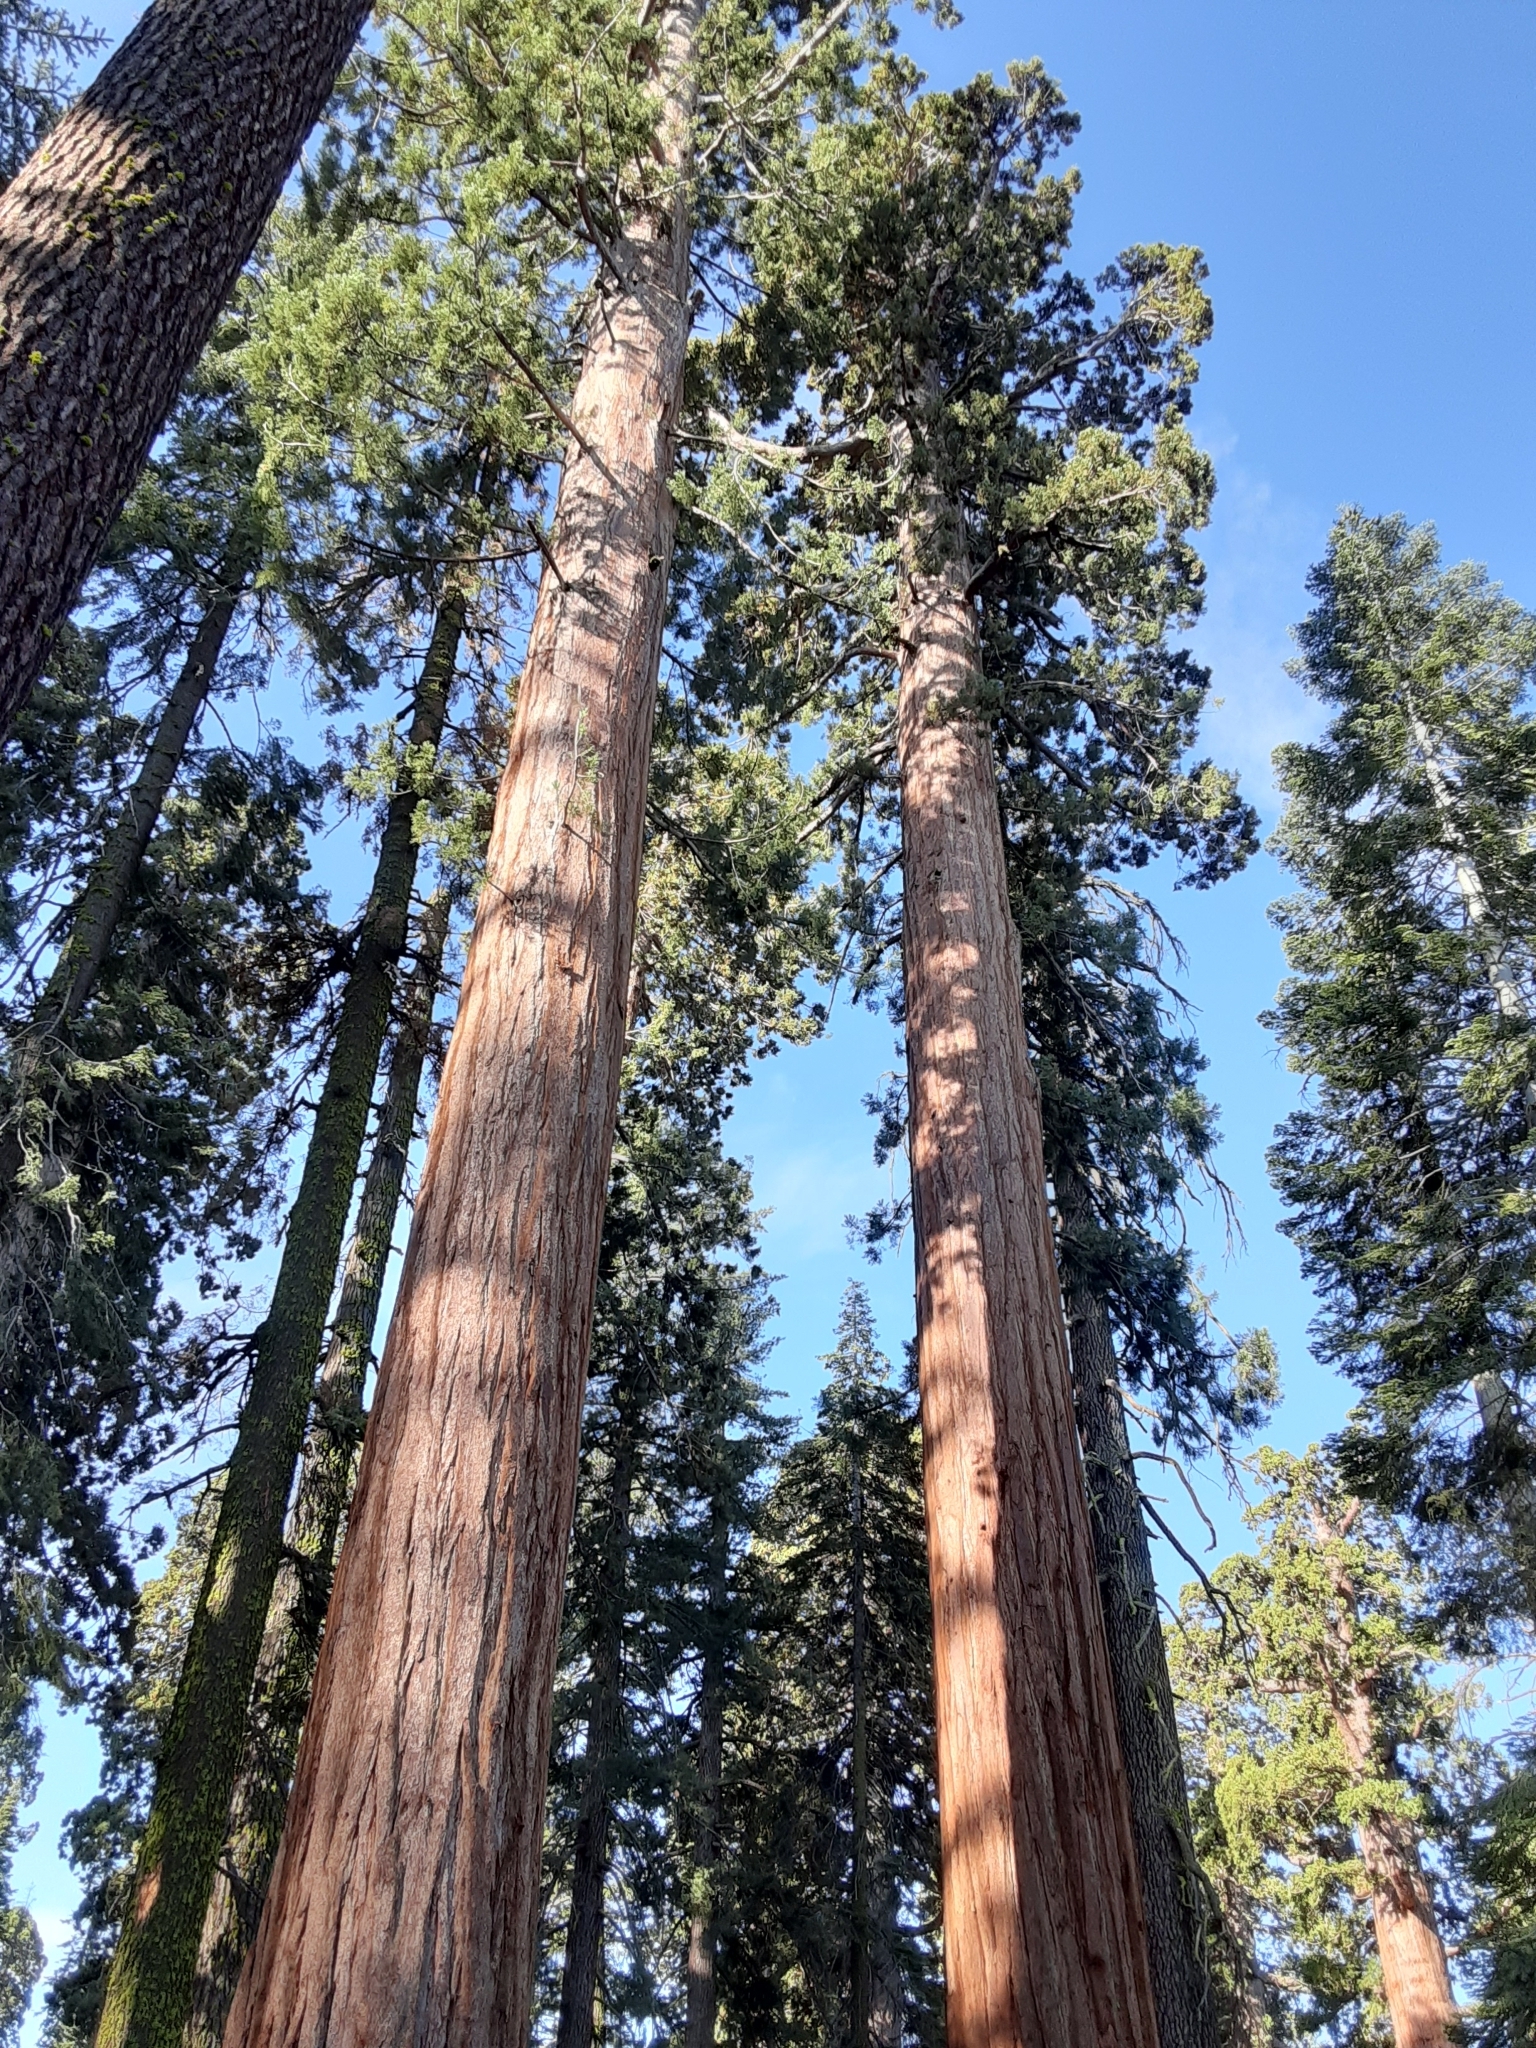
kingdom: Plantae
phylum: Tracheophyta
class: Pinopsida
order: Pinales
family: Cupressaceae
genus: Sequoiadendron
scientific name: Sequoiadendron giganteum
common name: Wellingtonia
